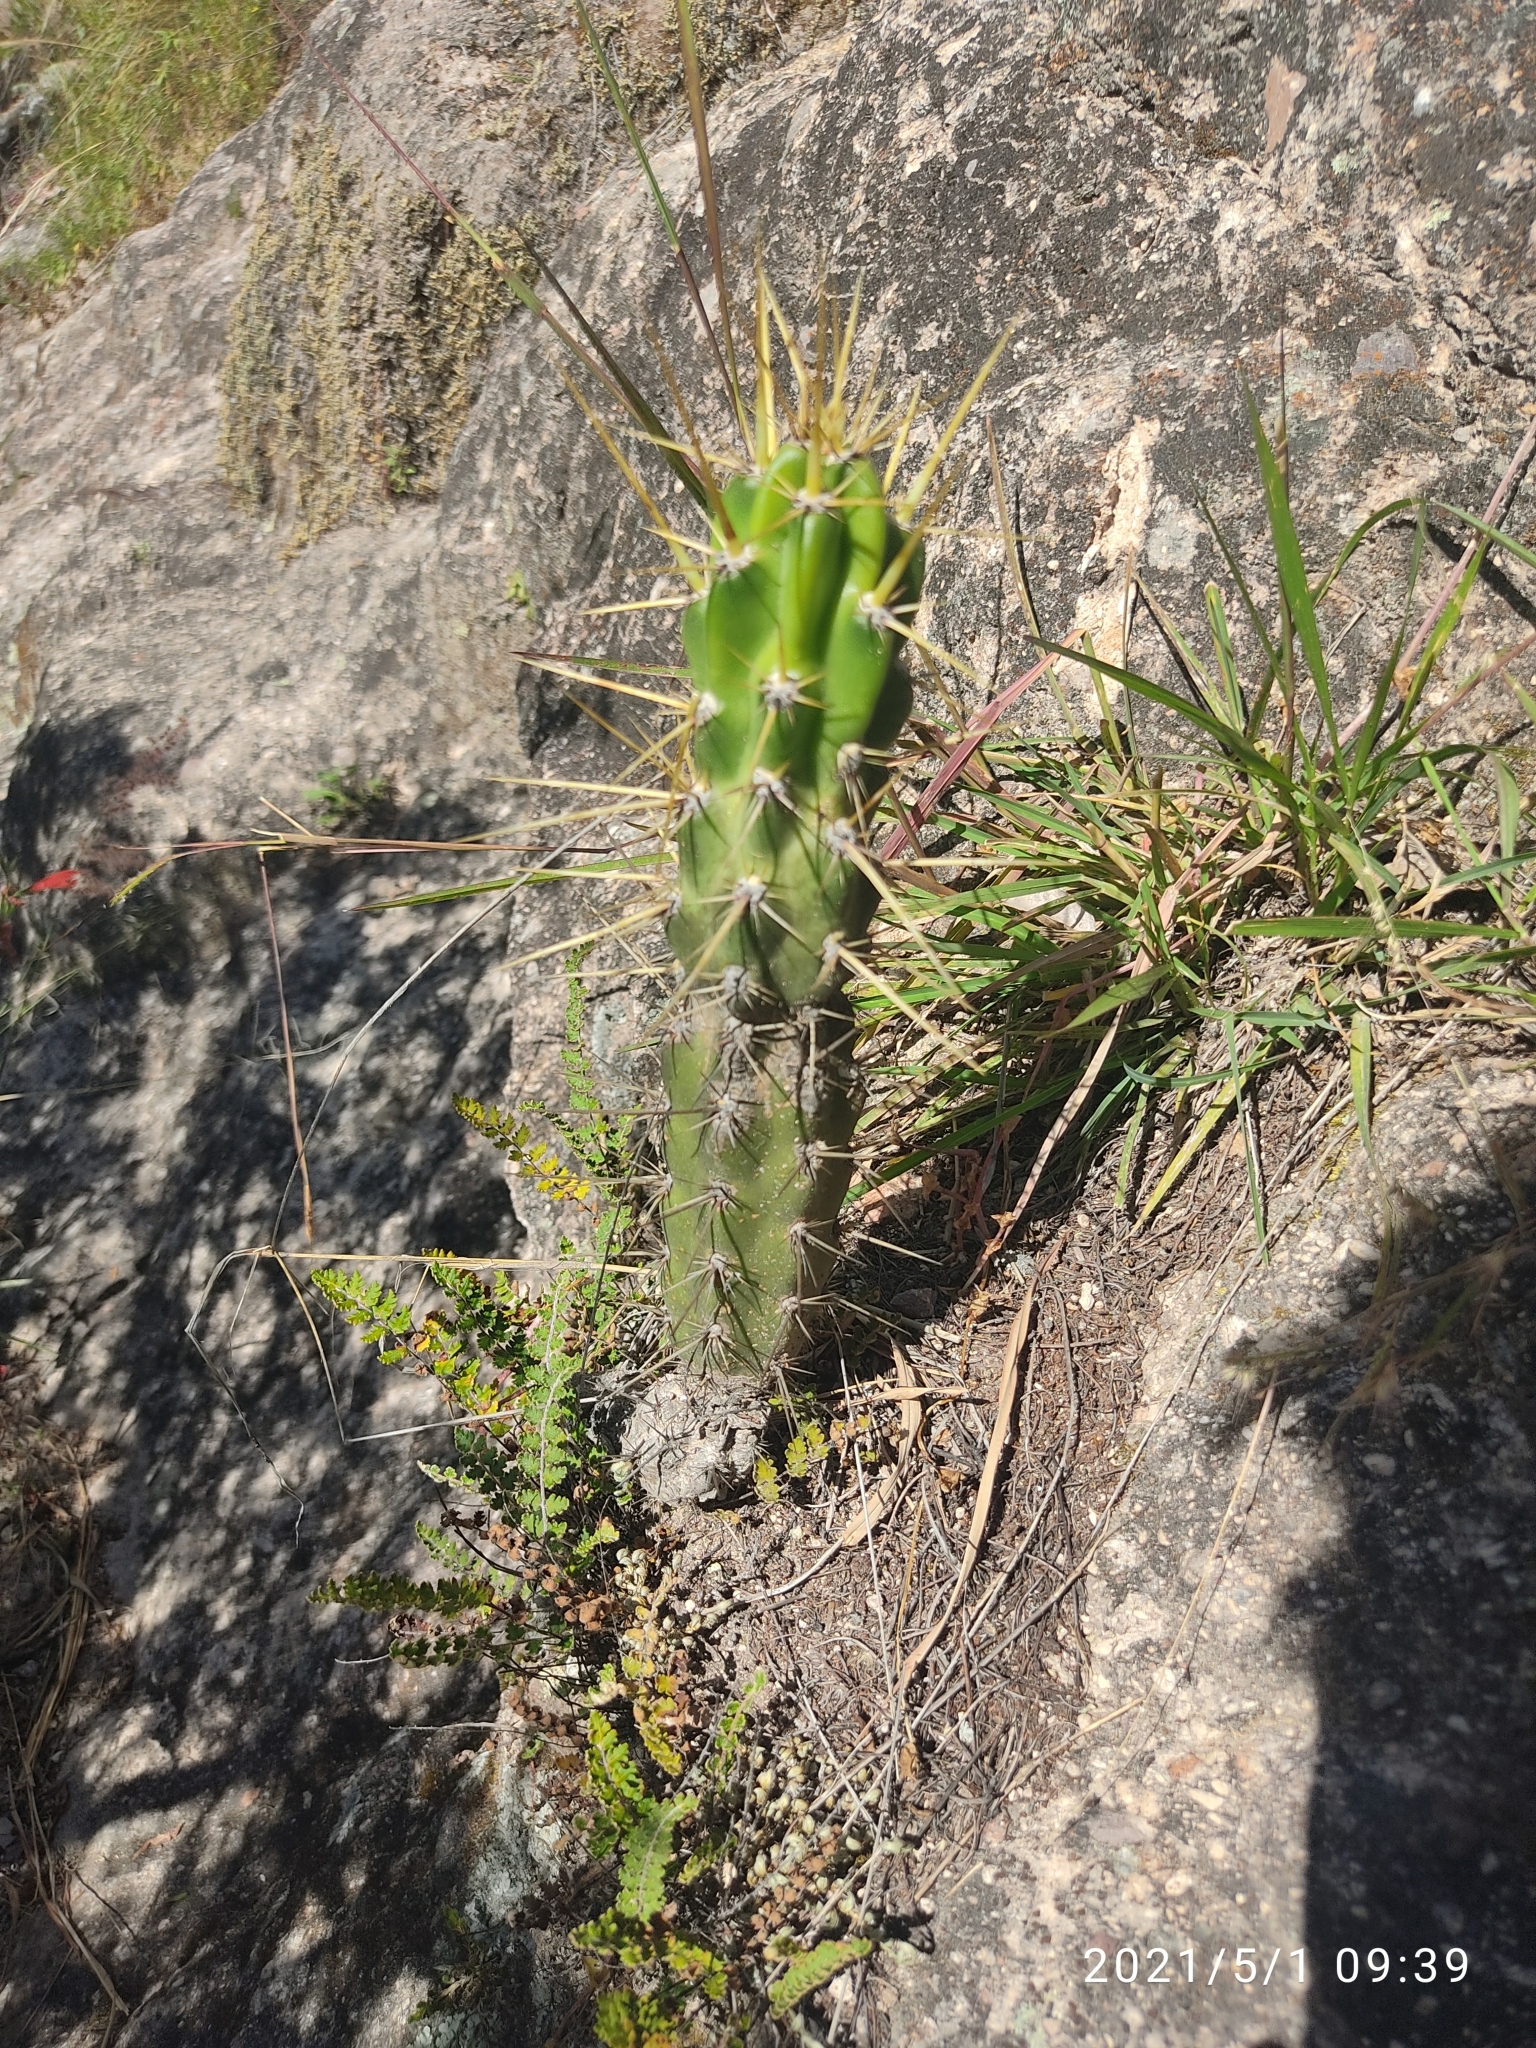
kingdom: Plantae
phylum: Tracheophyta
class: Magnoliopsida
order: Caryophyllales
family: Cactaceae
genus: Corryocactus
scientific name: Corryocactus ayacuchoensis
